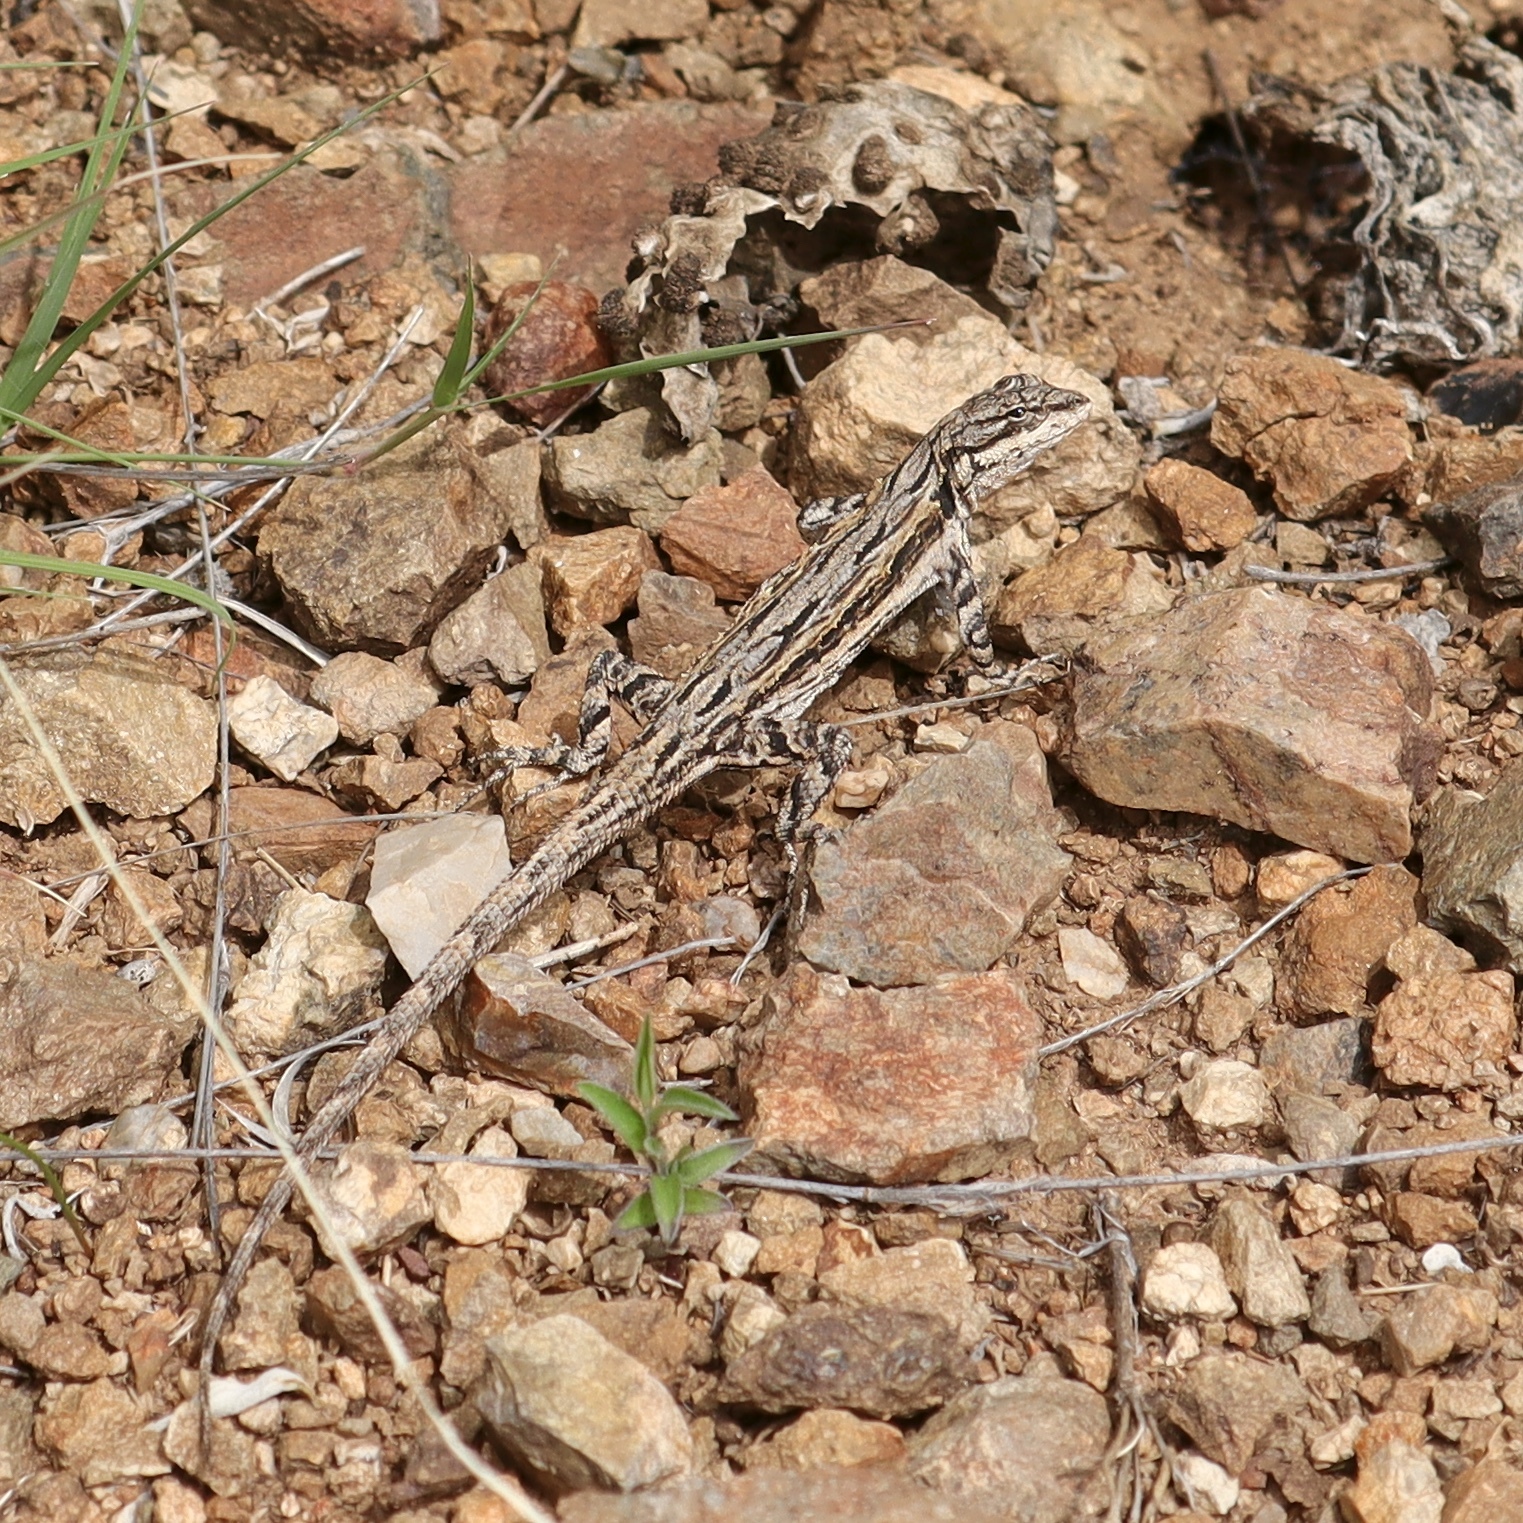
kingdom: Animalia
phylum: Chordata
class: Squamata
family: Phrynosomatidae
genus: Urosaurus
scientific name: Urosaurus ornatus
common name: Ornate tree lizard
